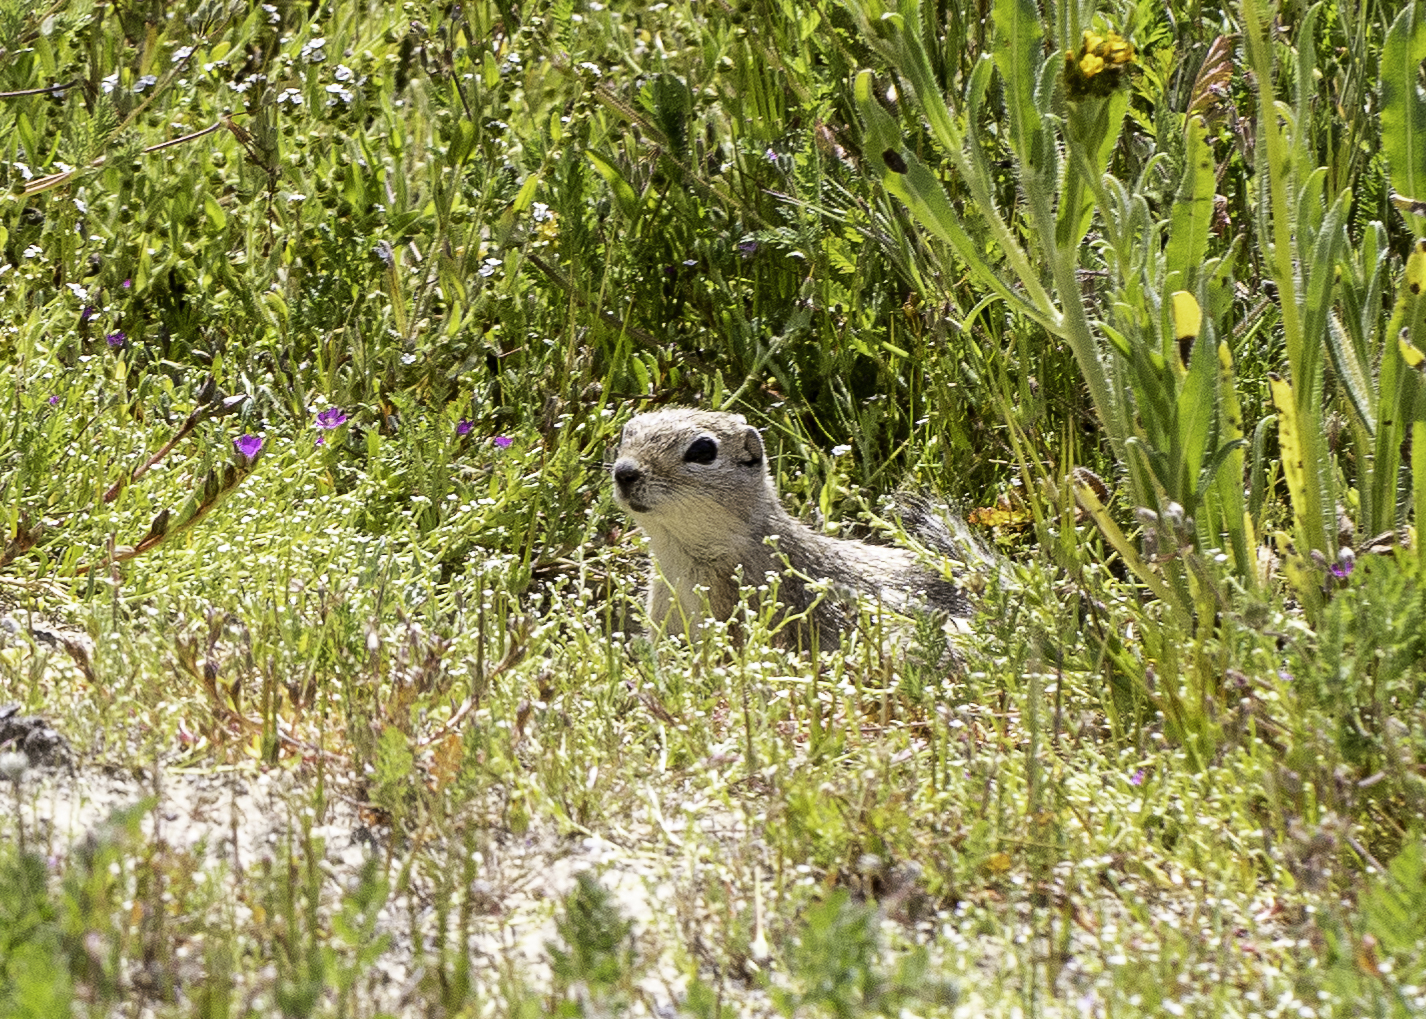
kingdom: Animalia
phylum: Chordata
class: Mammalia
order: Rodentia
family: Sciuridae
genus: Ammospermophilus
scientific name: Ammospermophilus nelsoni
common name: Nelson's antelope squirrel
